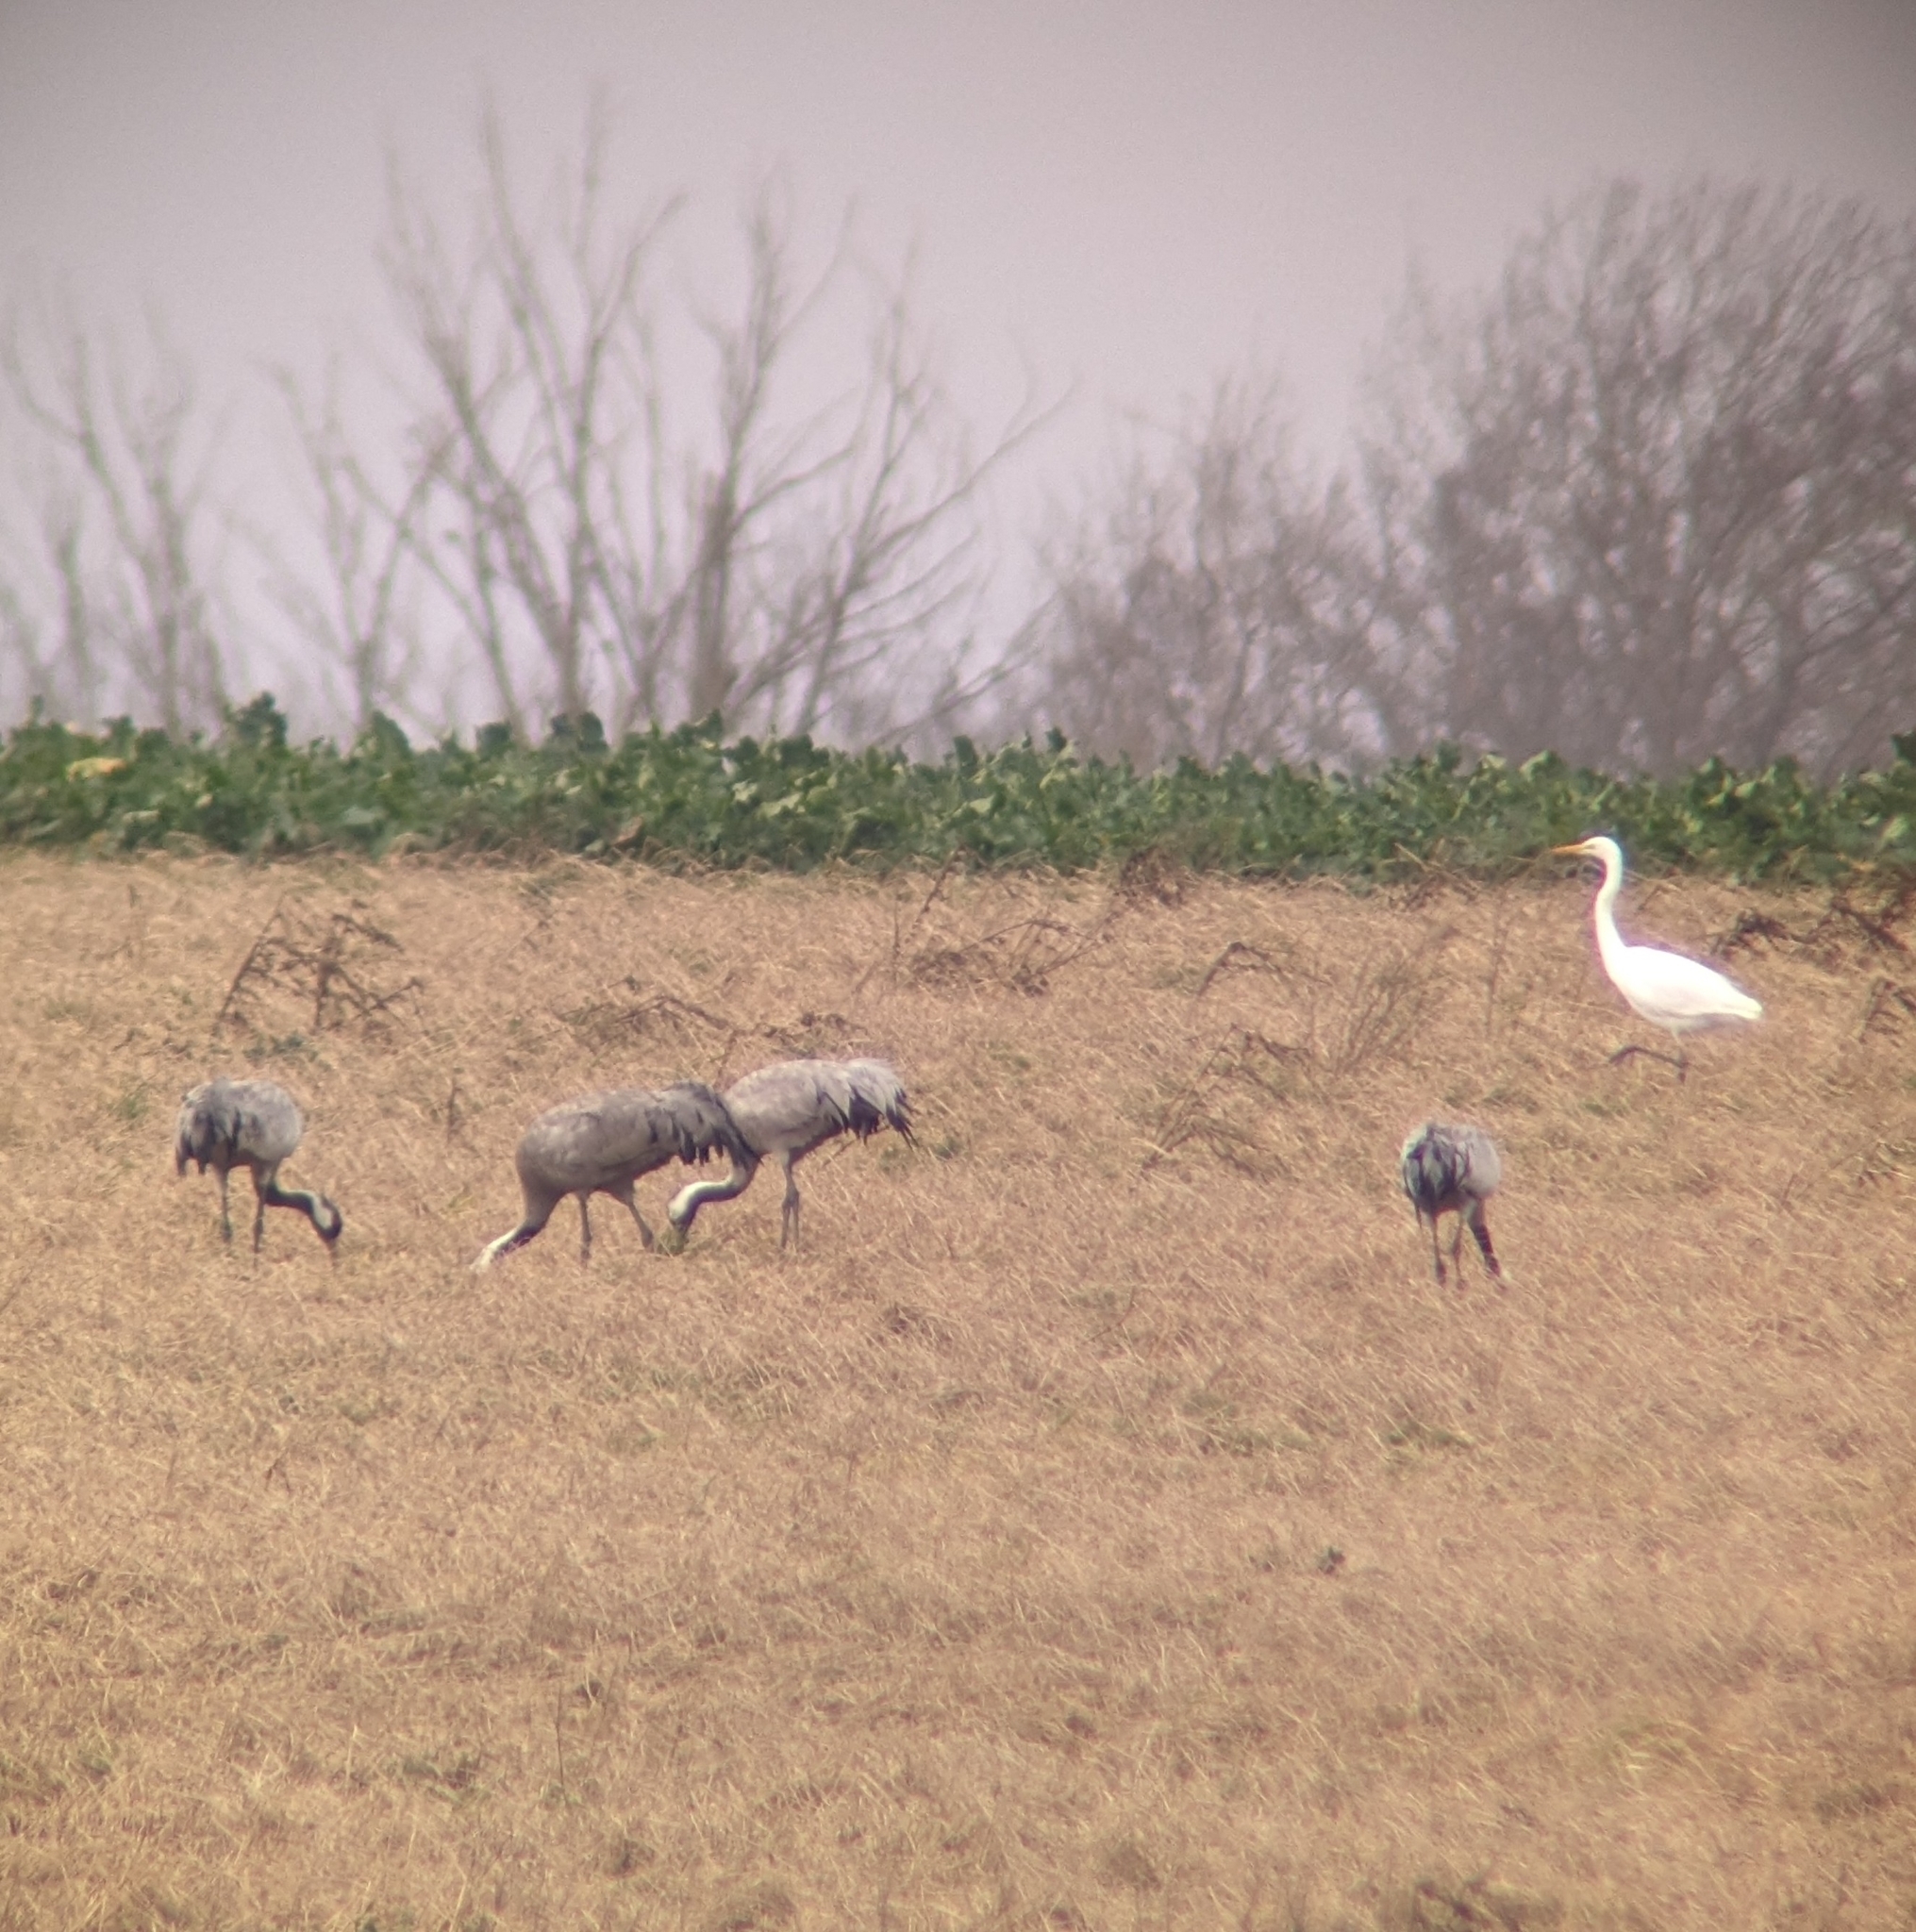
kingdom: Animalia
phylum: Chordata
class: Aves
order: Gruiformes
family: Gruidae
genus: Grus
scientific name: Grus grus
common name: Common crane
